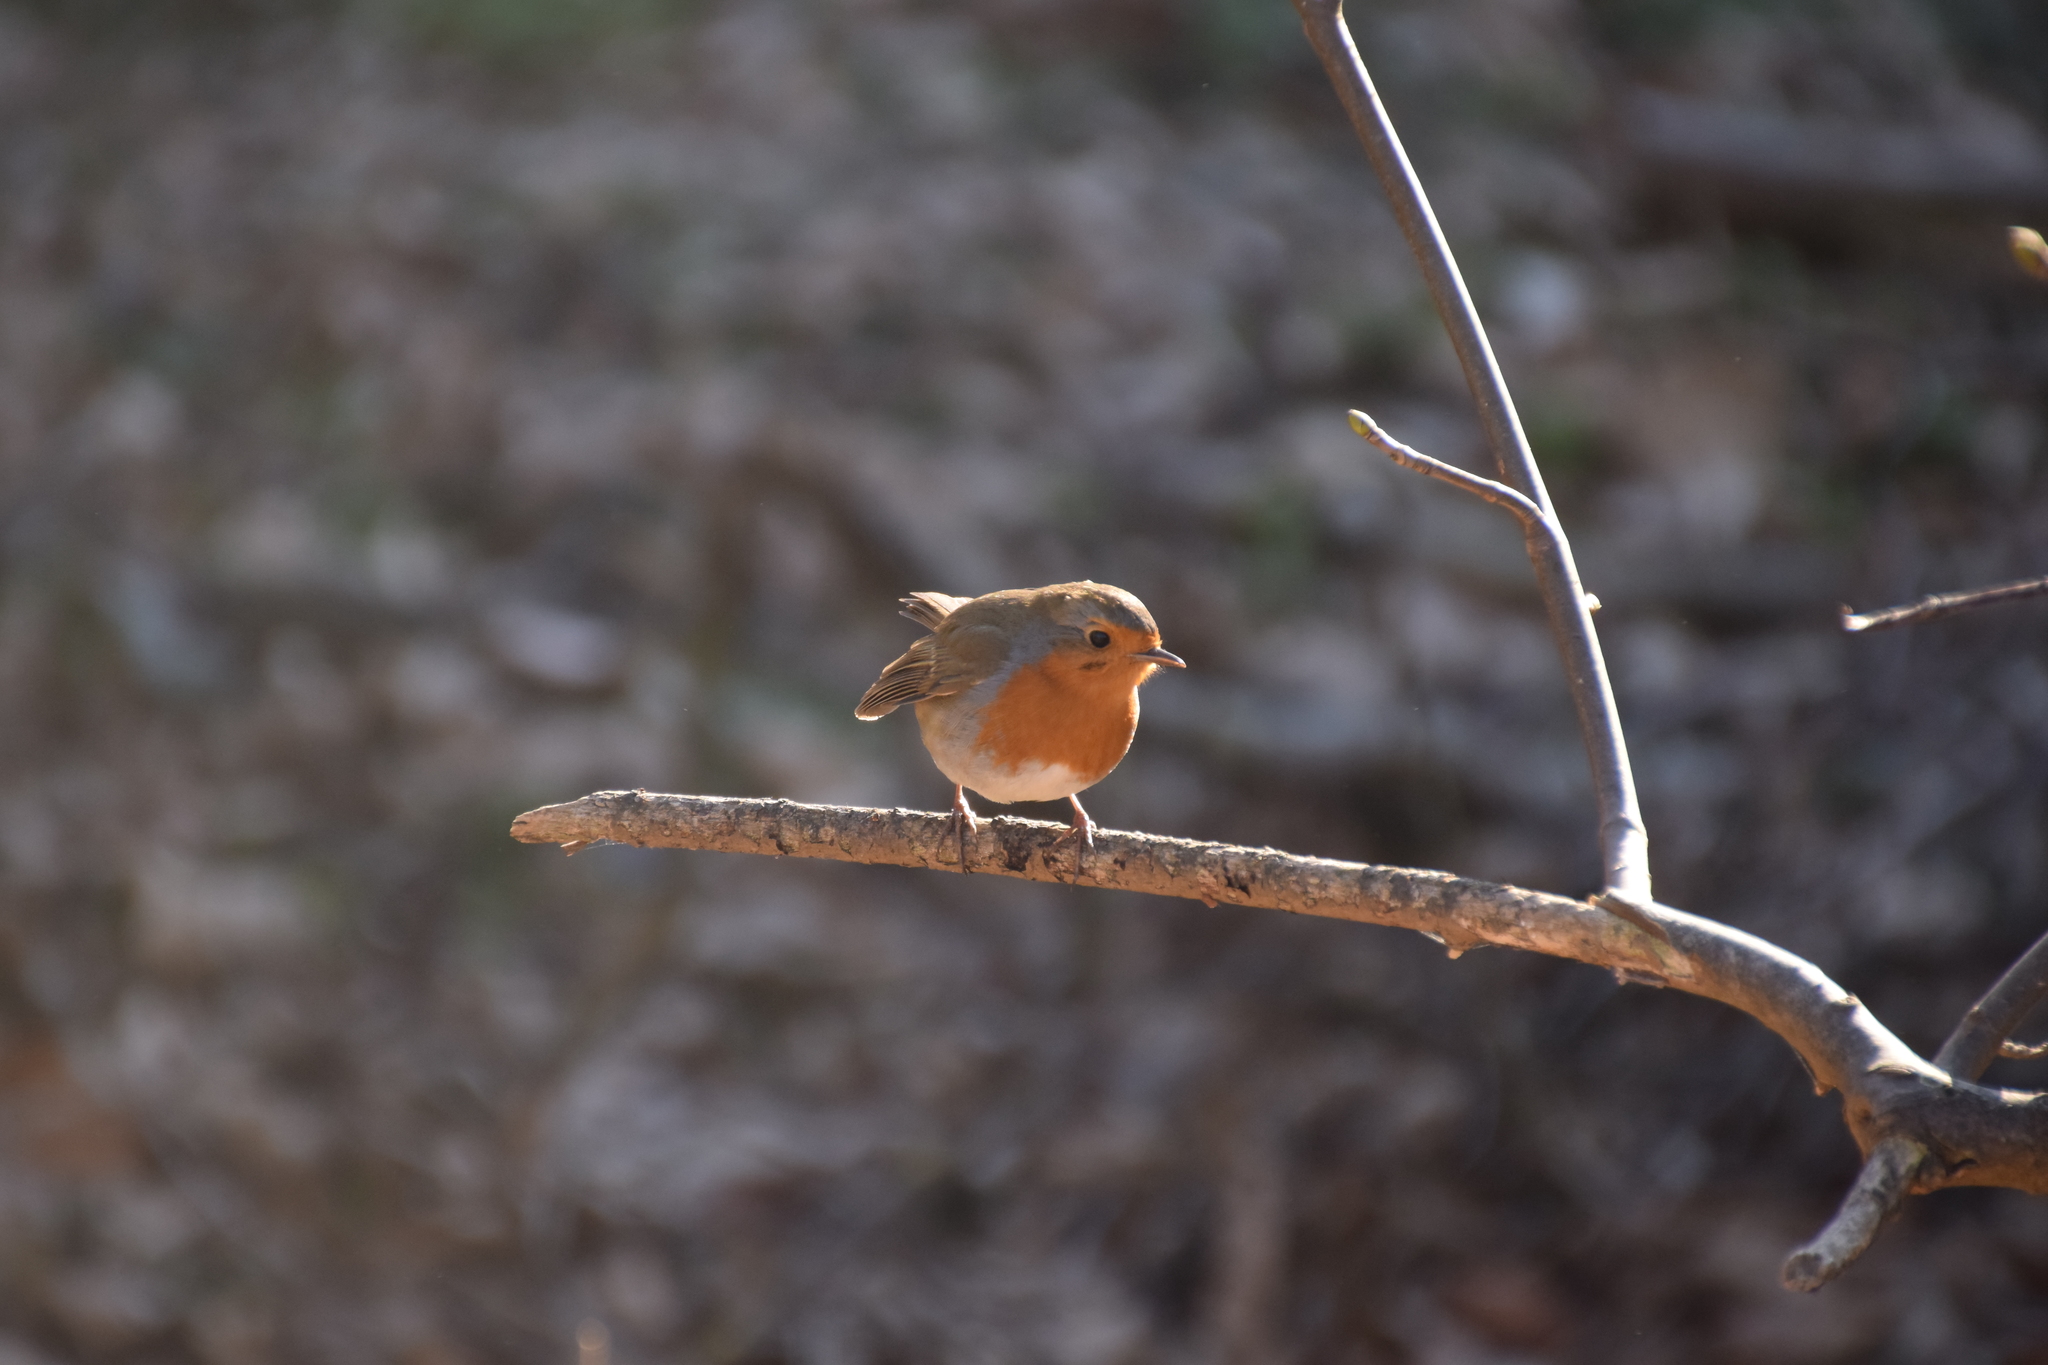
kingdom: Animalia
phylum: Chordata
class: Aves
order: Passeriformes
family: Muscicapidae
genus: Erithacus
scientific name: Erithacus rubecula
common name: European robin
